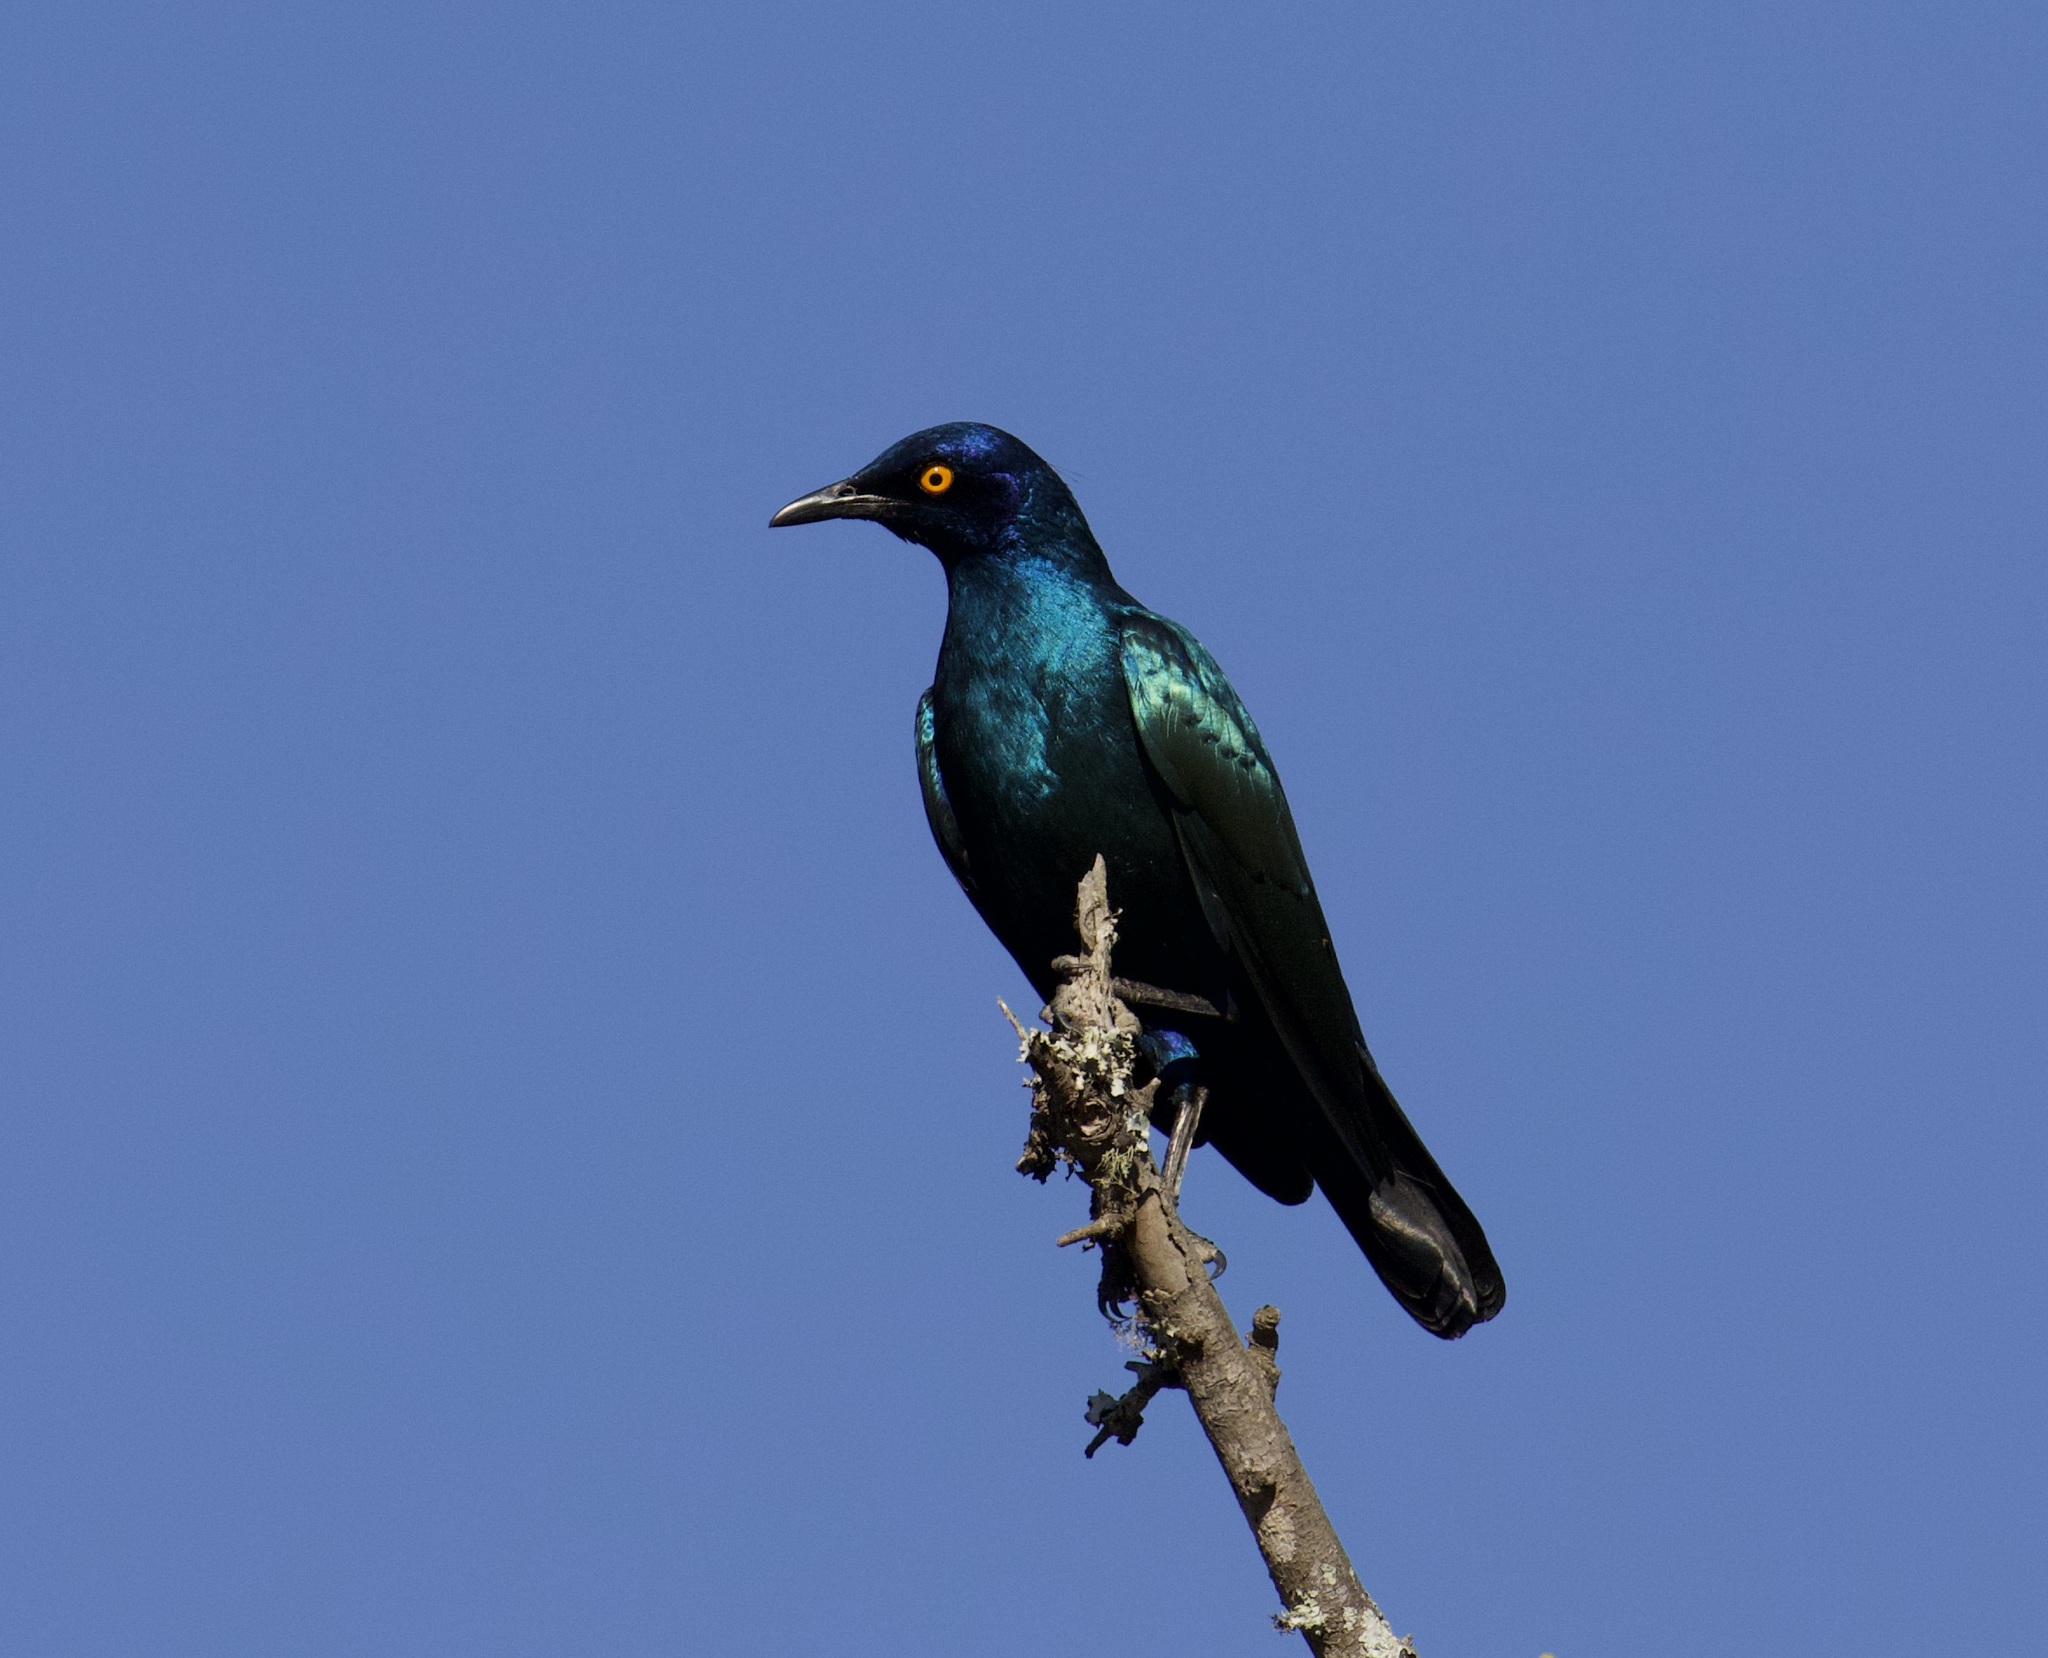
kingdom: Animalia
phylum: Chordata
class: Aves
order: Passeriformes
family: Sturnidae
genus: Lamprotornis
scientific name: Lamprotornis nitens
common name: Cape starling
